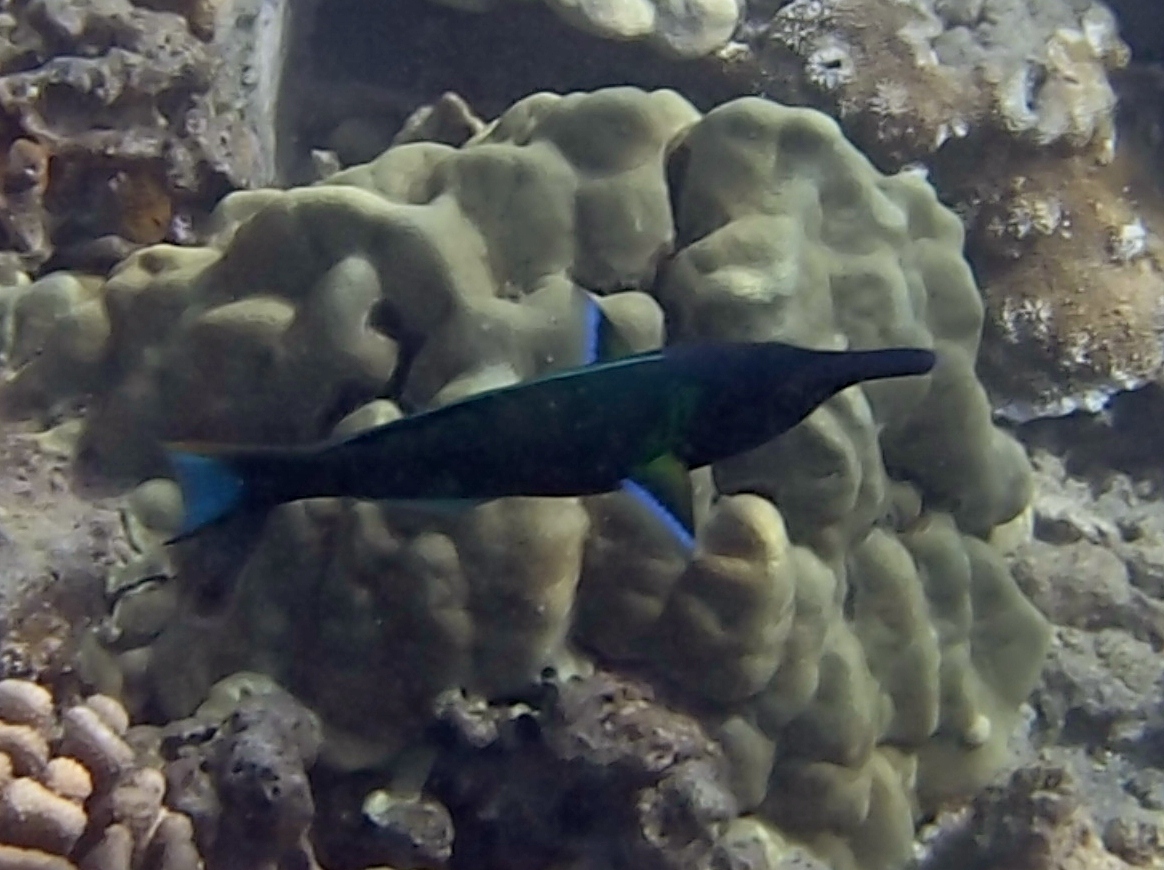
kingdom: Animalia
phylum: Chordata
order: Perciformes
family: Labridae
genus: Gomphosus
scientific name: Gomphosus varius
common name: Bird wrasse
